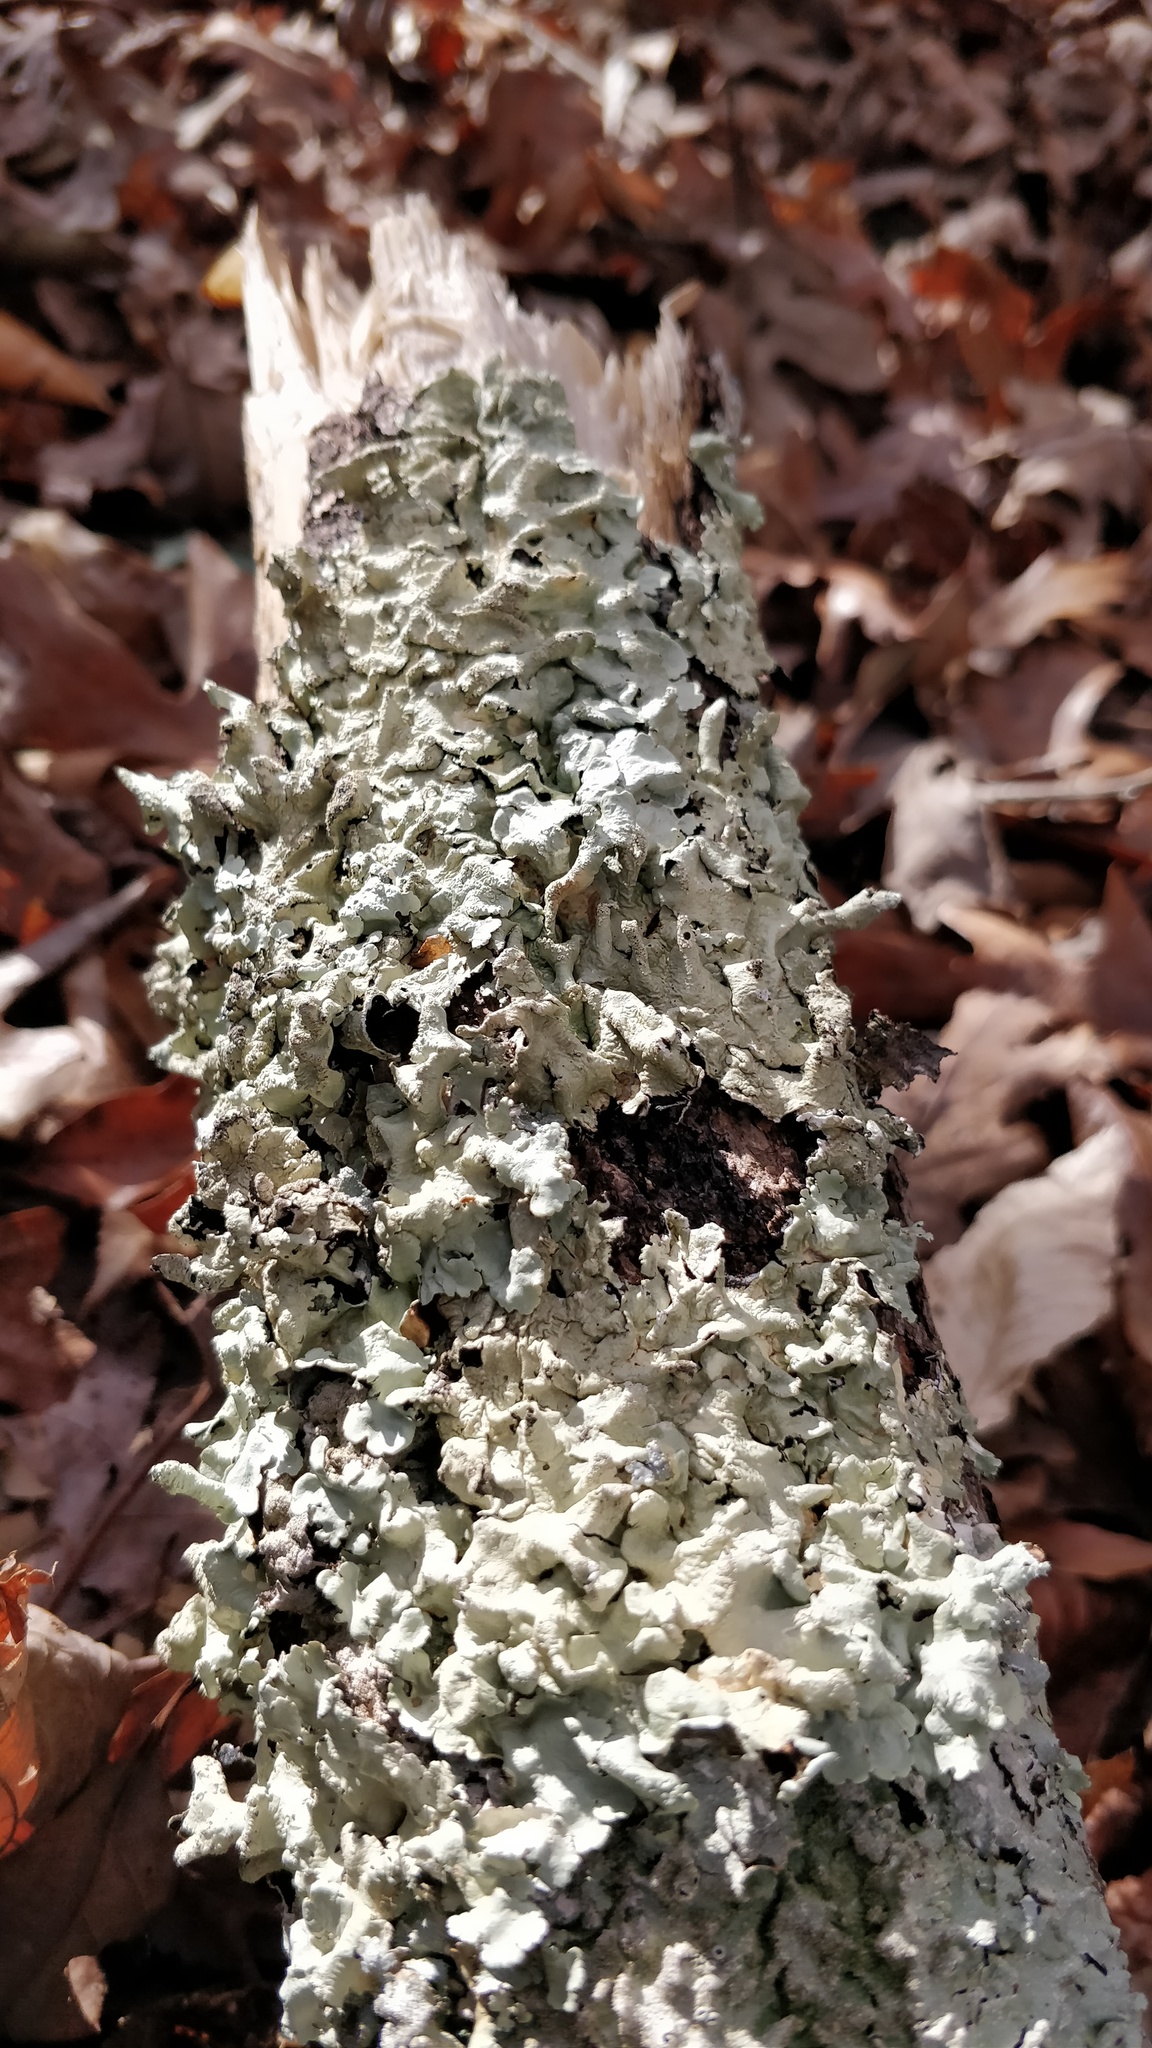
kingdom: Fungi
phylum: Ascomycota
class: Lecanoromycetes
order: Lecanorales
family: Parmeliaceae
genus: Flavoparmelia
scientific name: Flavoparmelia caperata
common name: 40-mile per hour lichen
